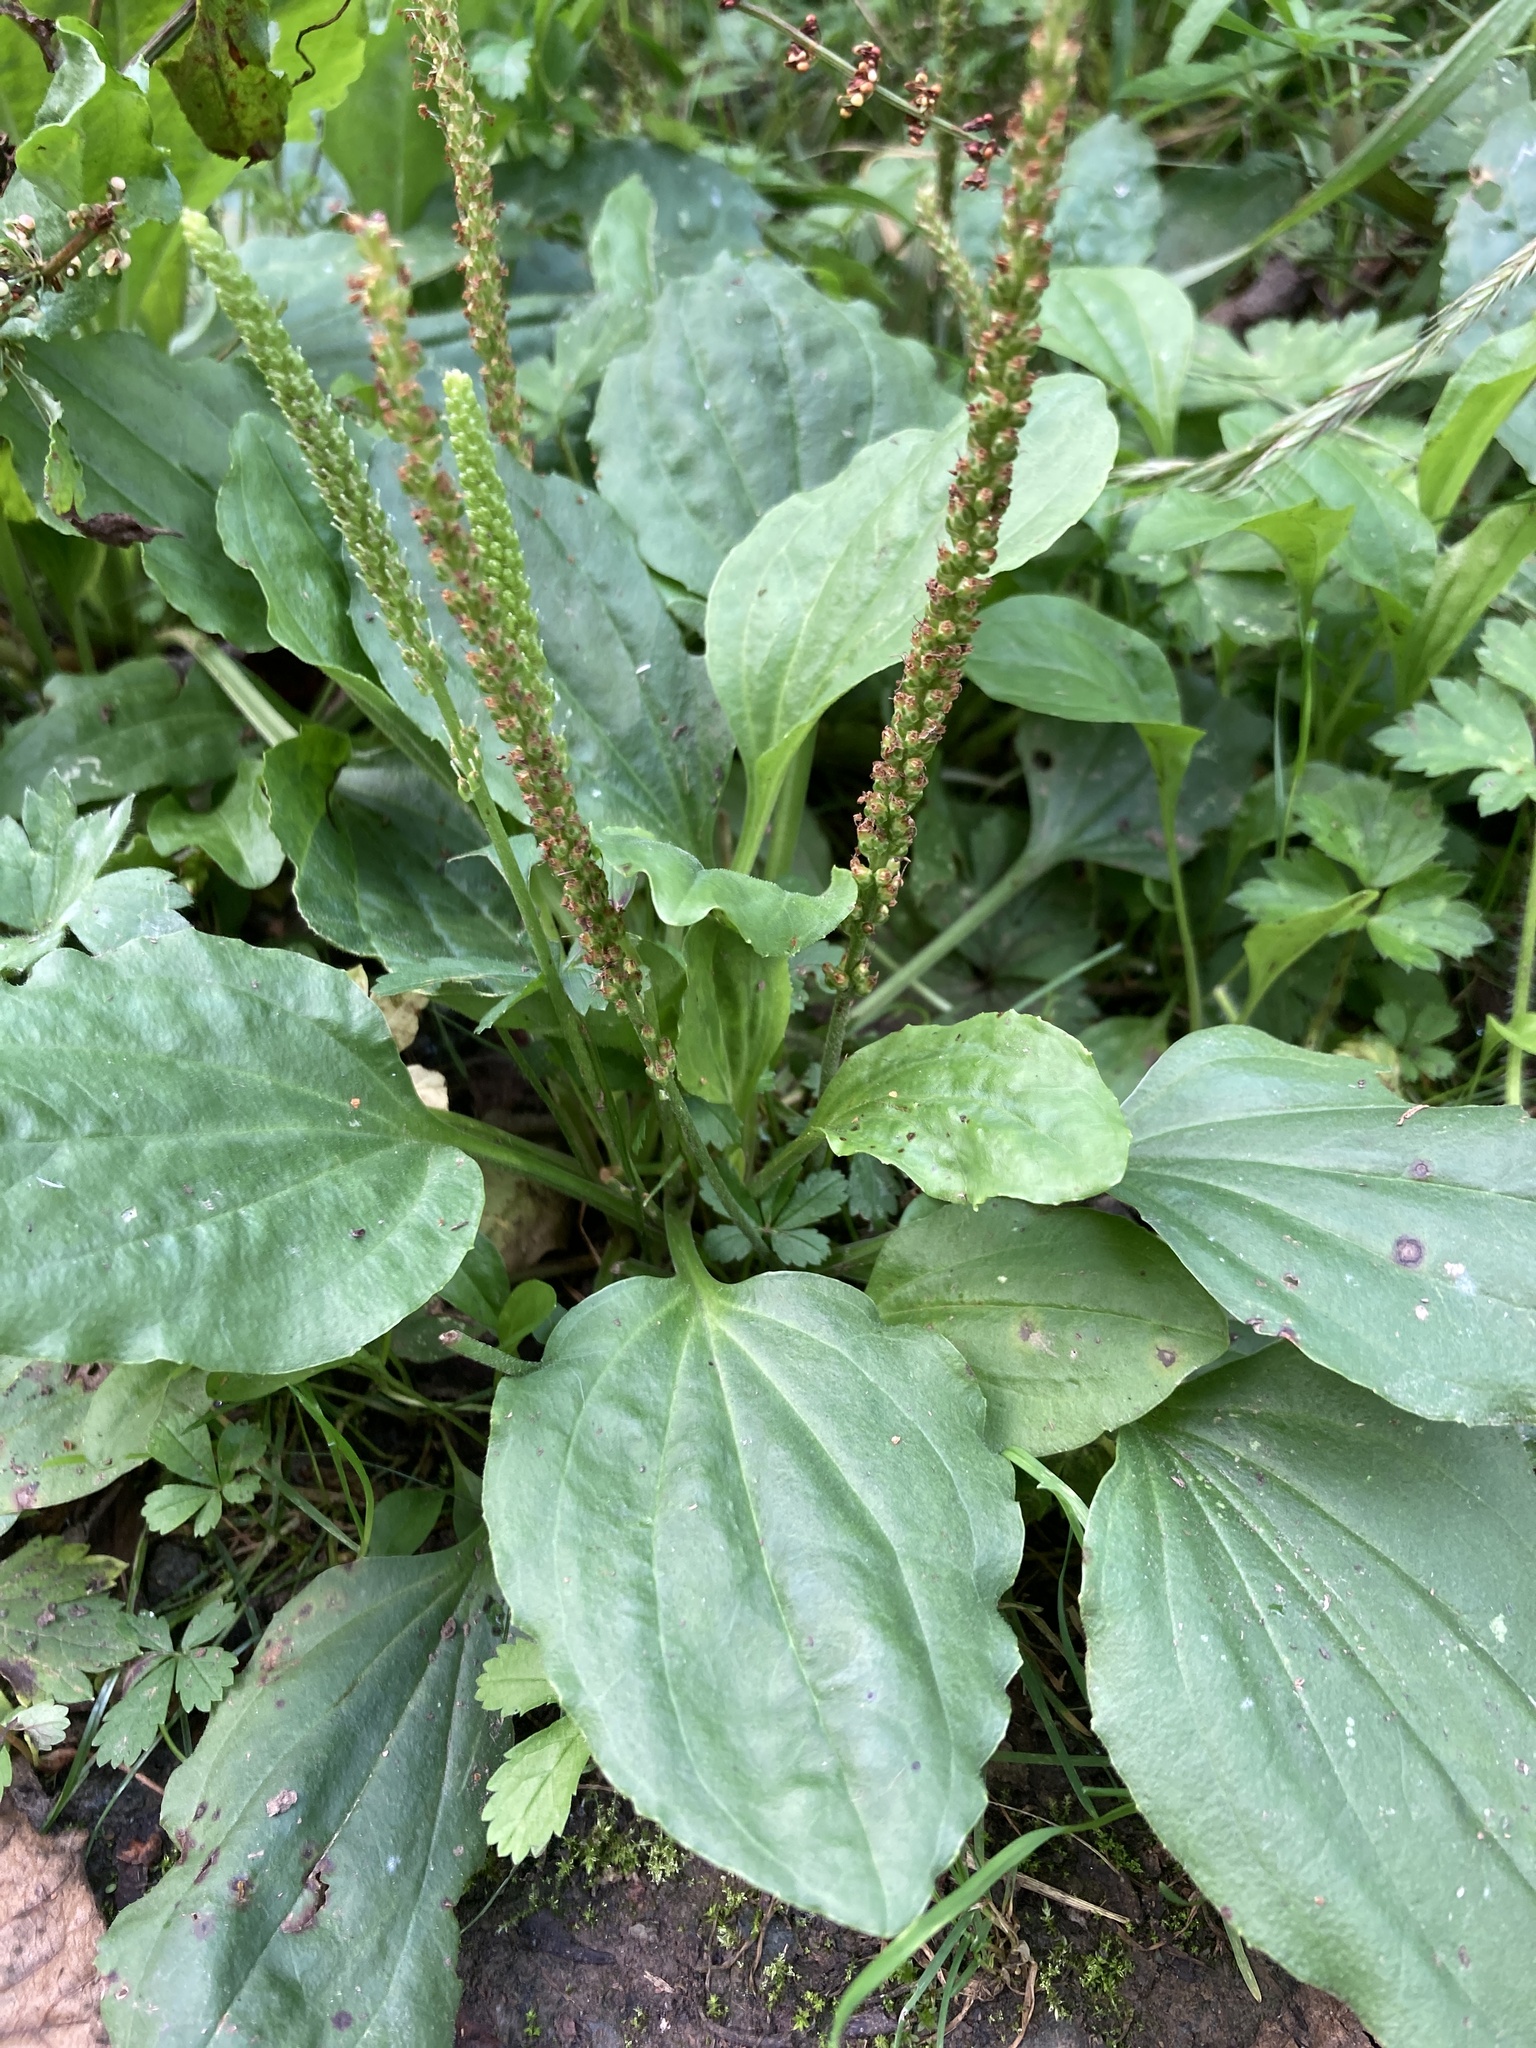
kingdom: Plantae
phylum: Tracheophyta
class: Magnoliopsida
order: Lamiales
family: Plantaginaceae
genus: Plantago
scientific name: Plantago major
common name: Common plantain
